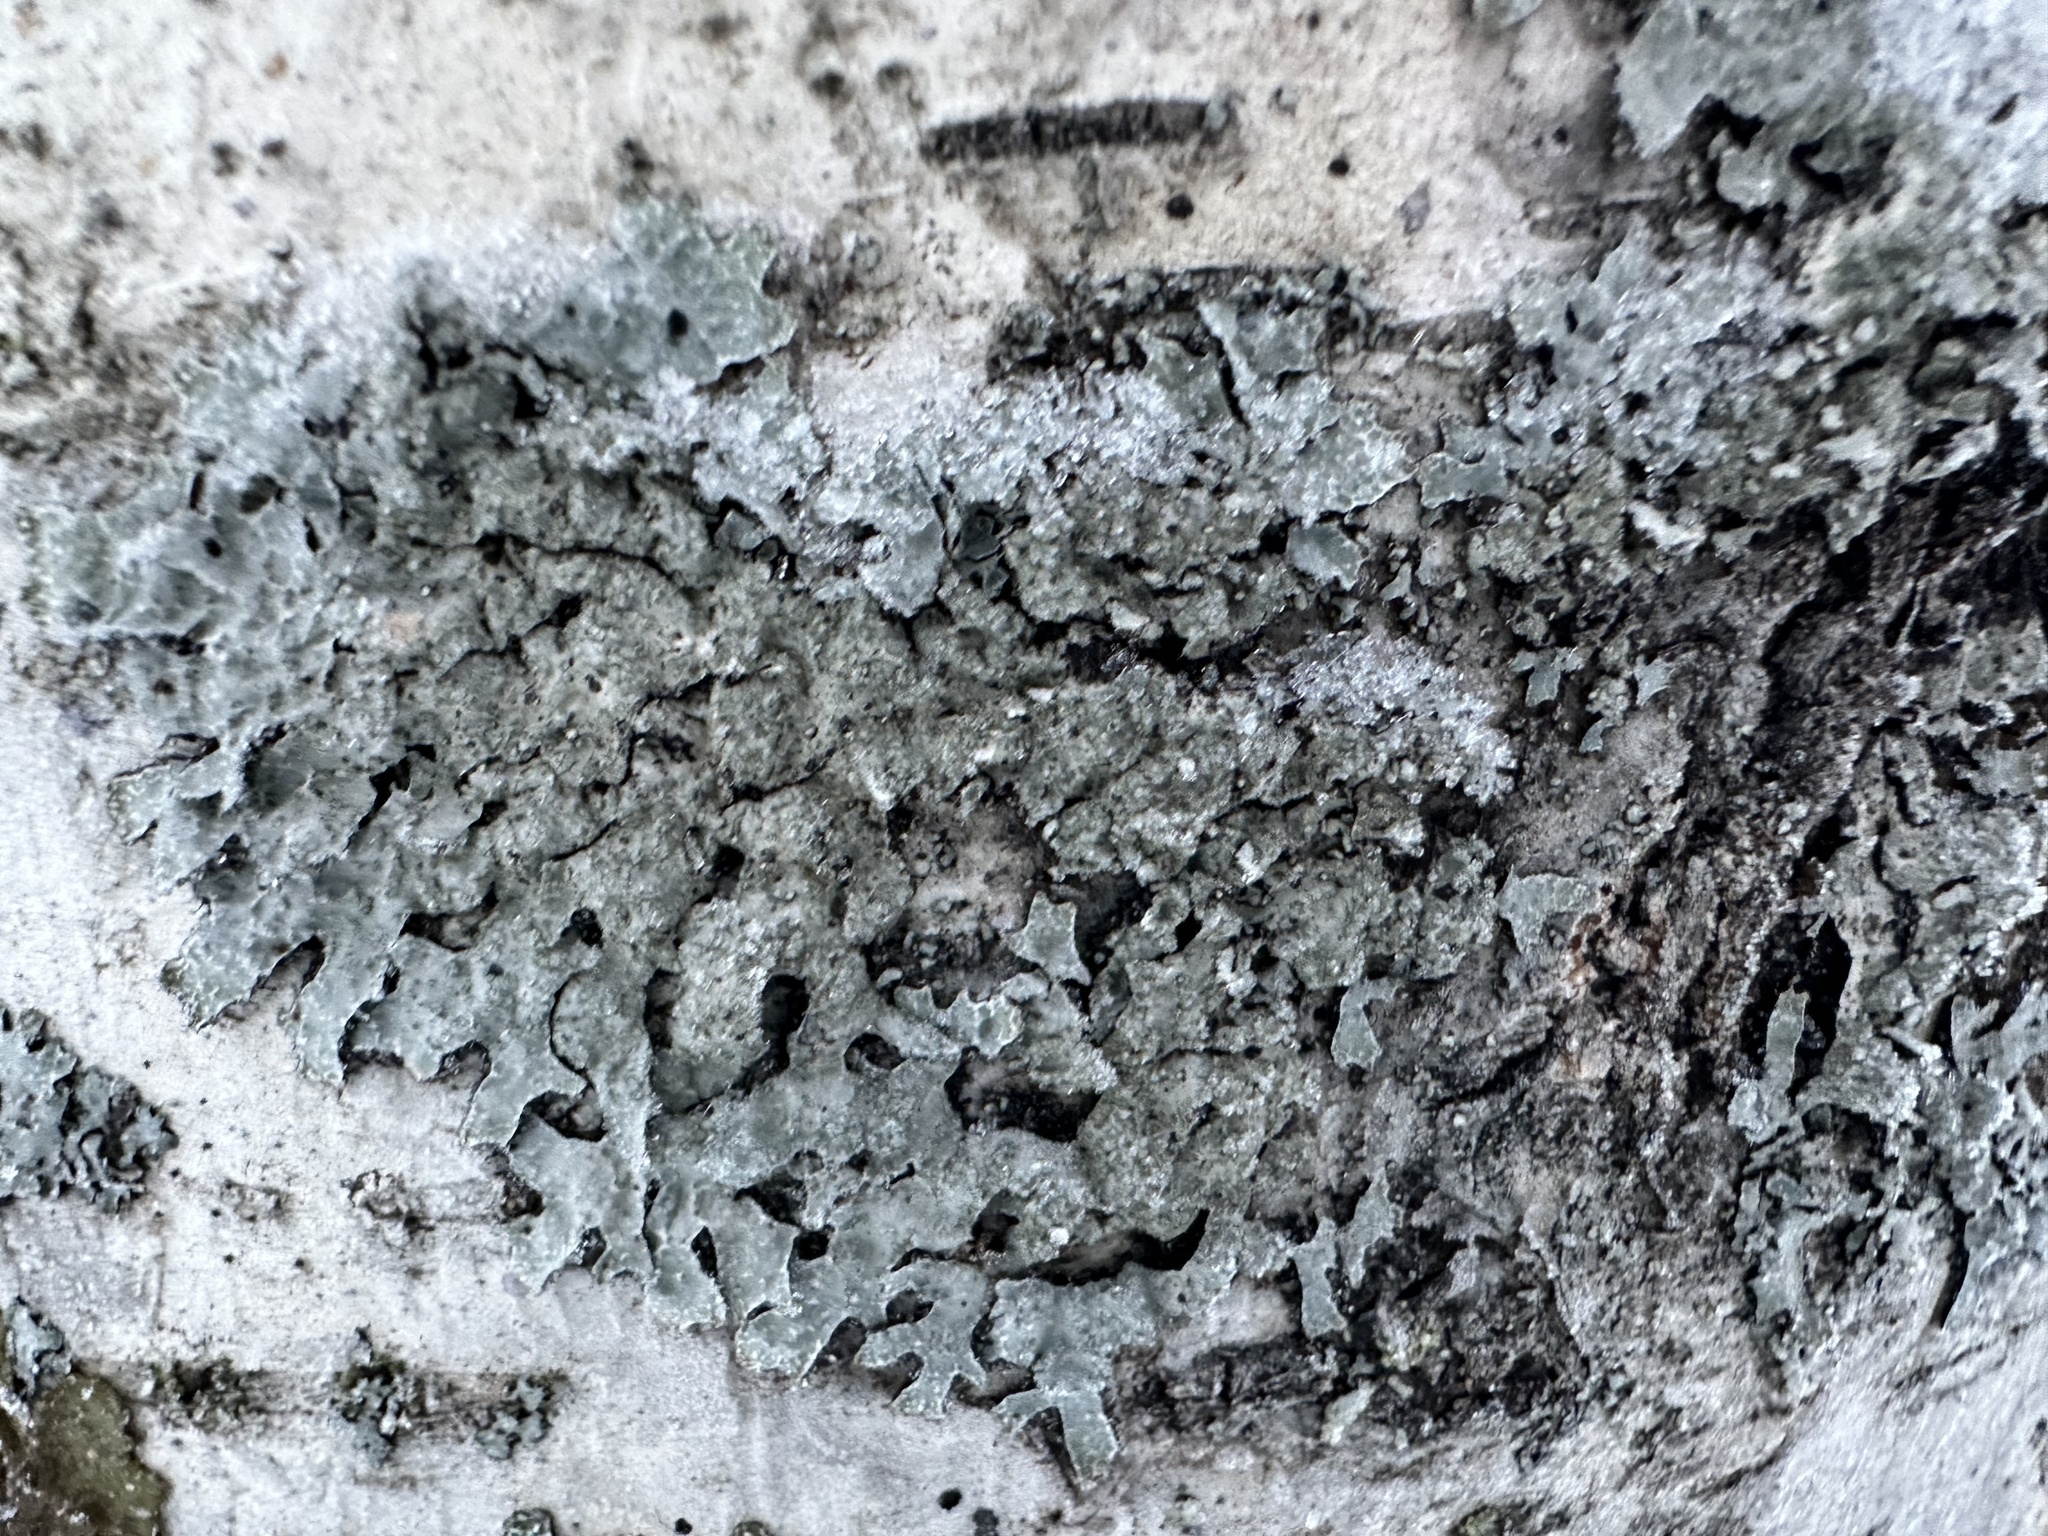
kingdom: Fungi
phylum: Ascomycota
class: Lecanoromycetes
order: Lecanorales
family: Parmeliaceae
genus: Parmelia
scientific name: Parmelia sulcata
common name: Netted shield lichen
